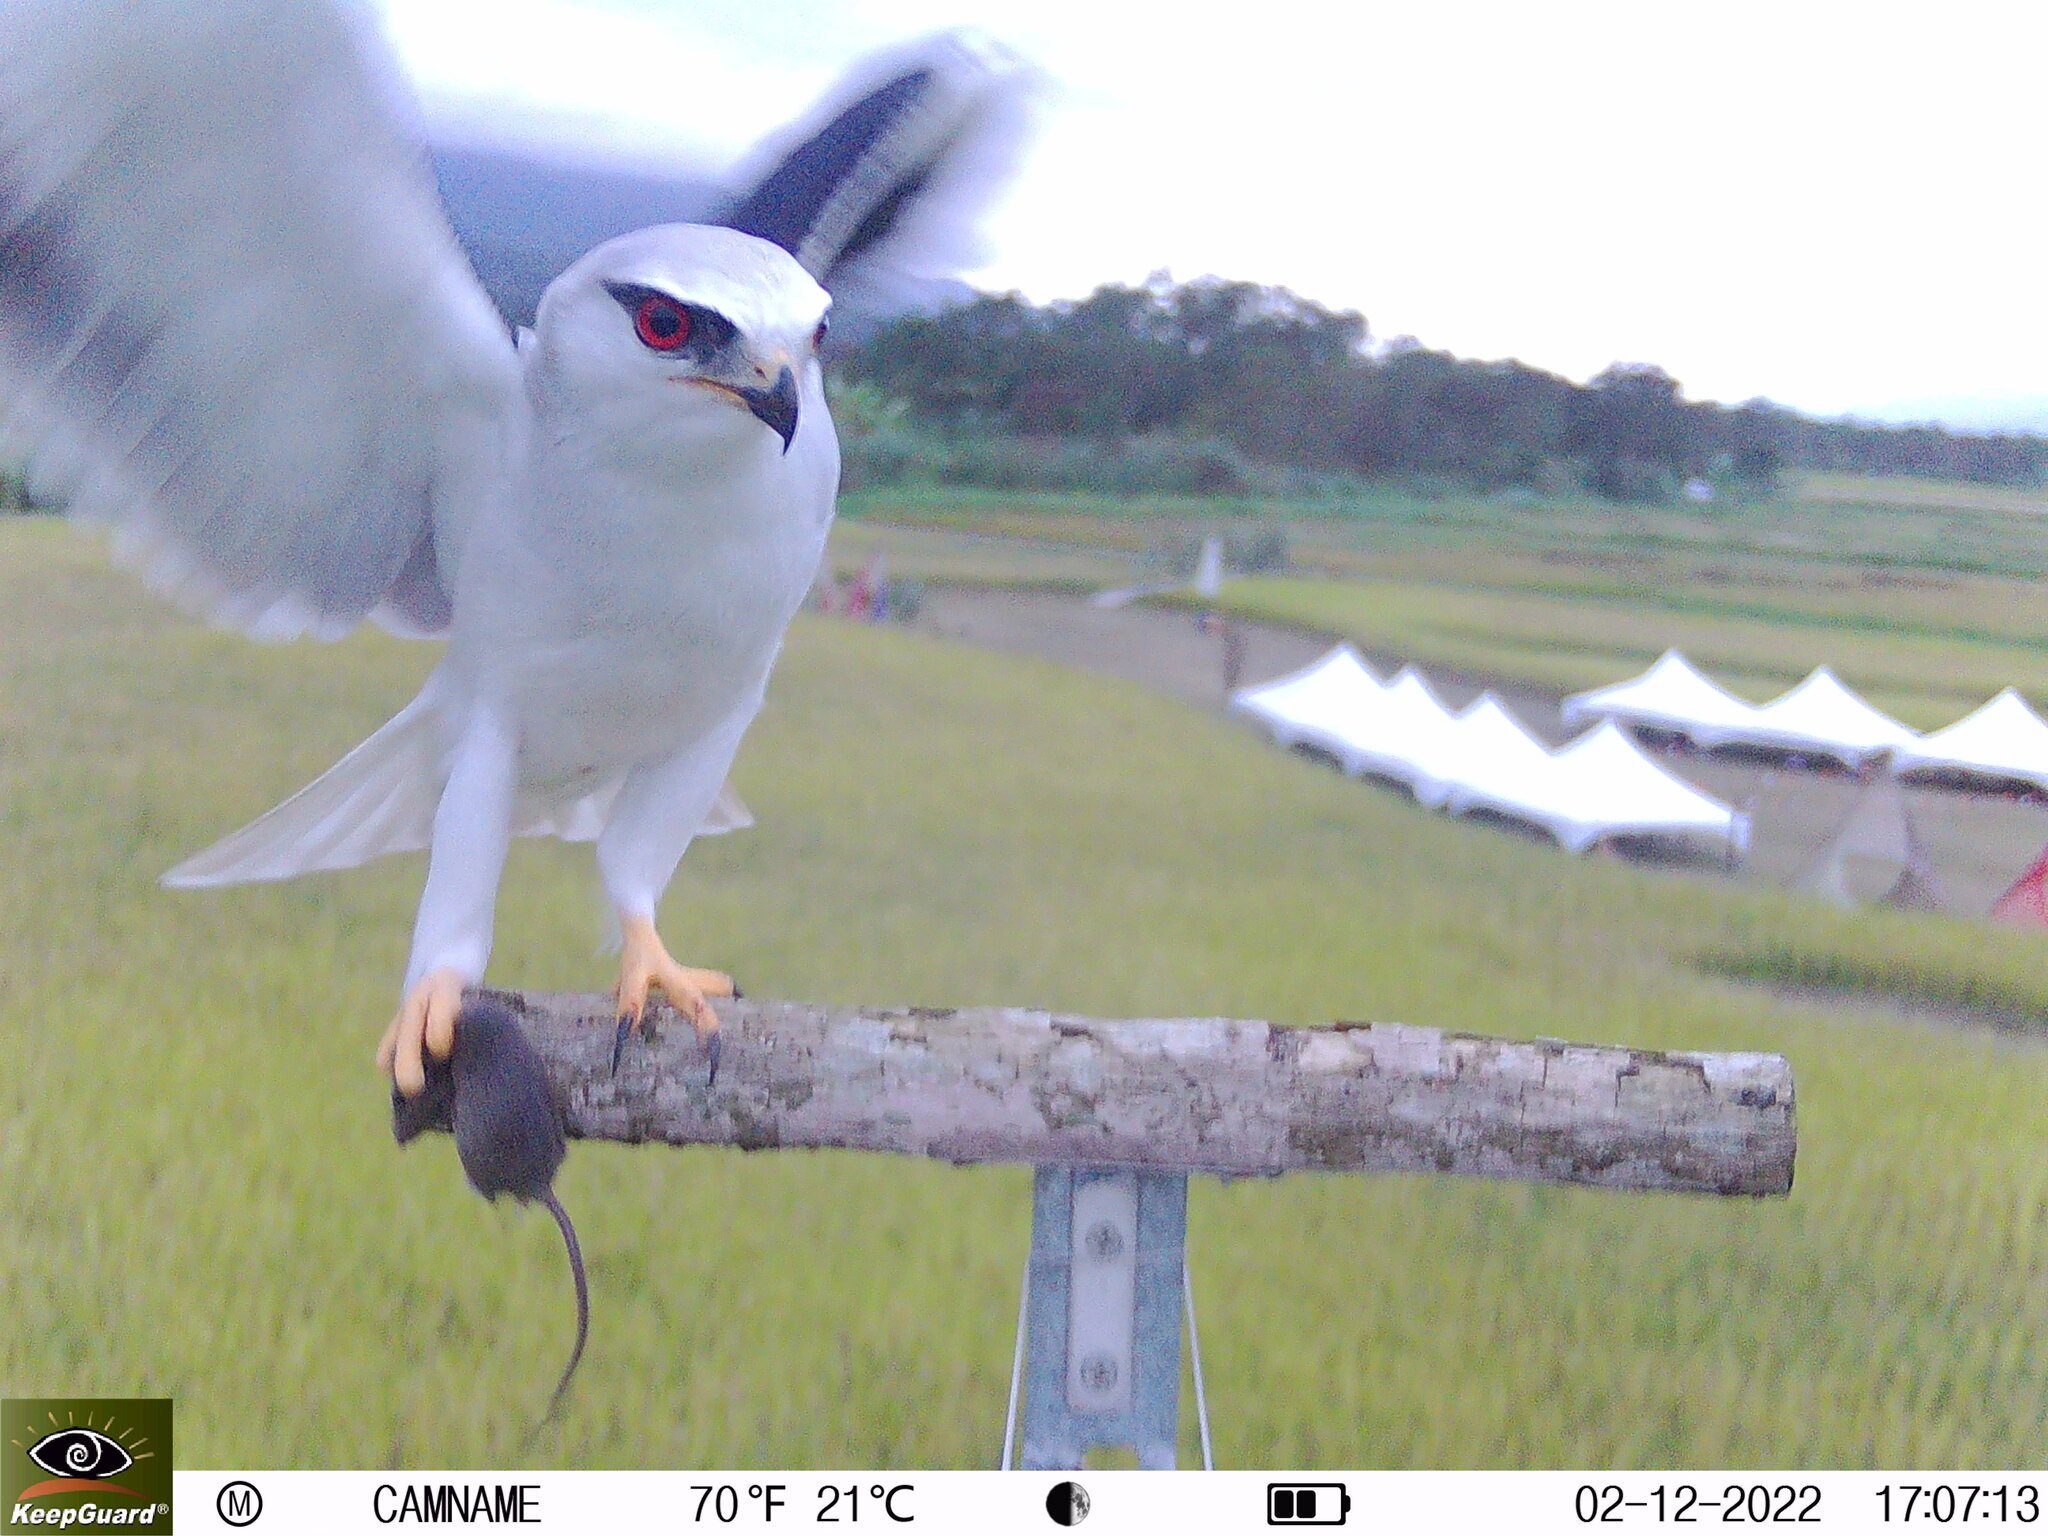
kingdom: Animalia
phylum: Chordata
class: Aves
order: Accipitriformes
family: Accipitridae
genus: Elanus
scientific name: Elanus caeruleus
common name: Black-winged kite
